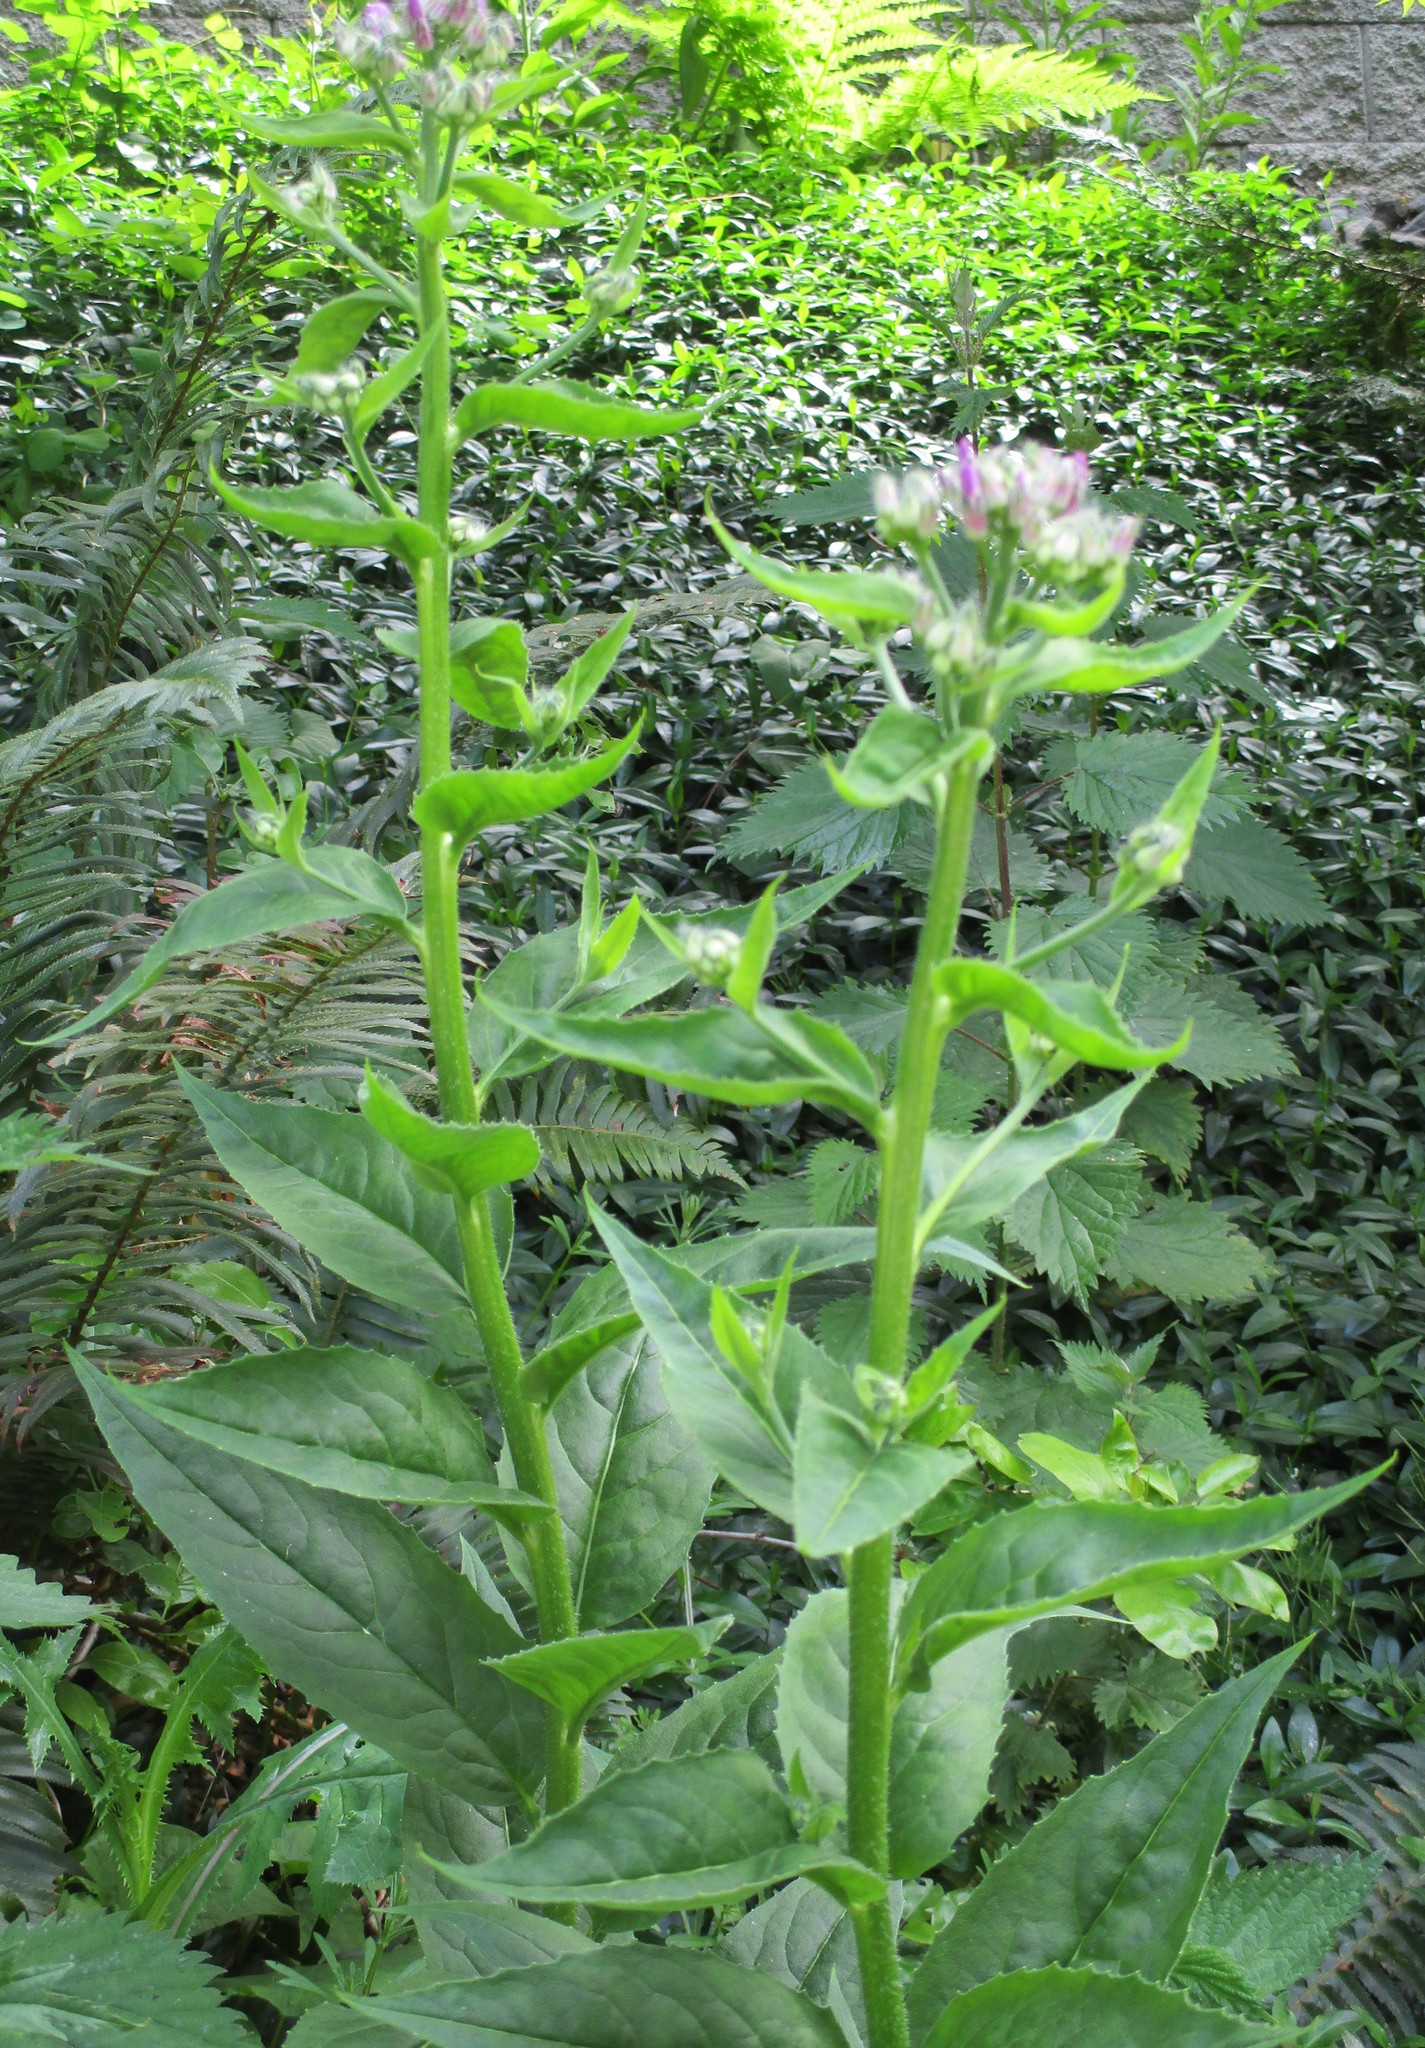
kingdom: Plantae
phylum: Tracheophyta
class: Magnoliopsida
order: Brassicales
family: Brassicaceae
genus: Hesperis
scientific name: Hesperis matronalis
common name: Dame's-violet
